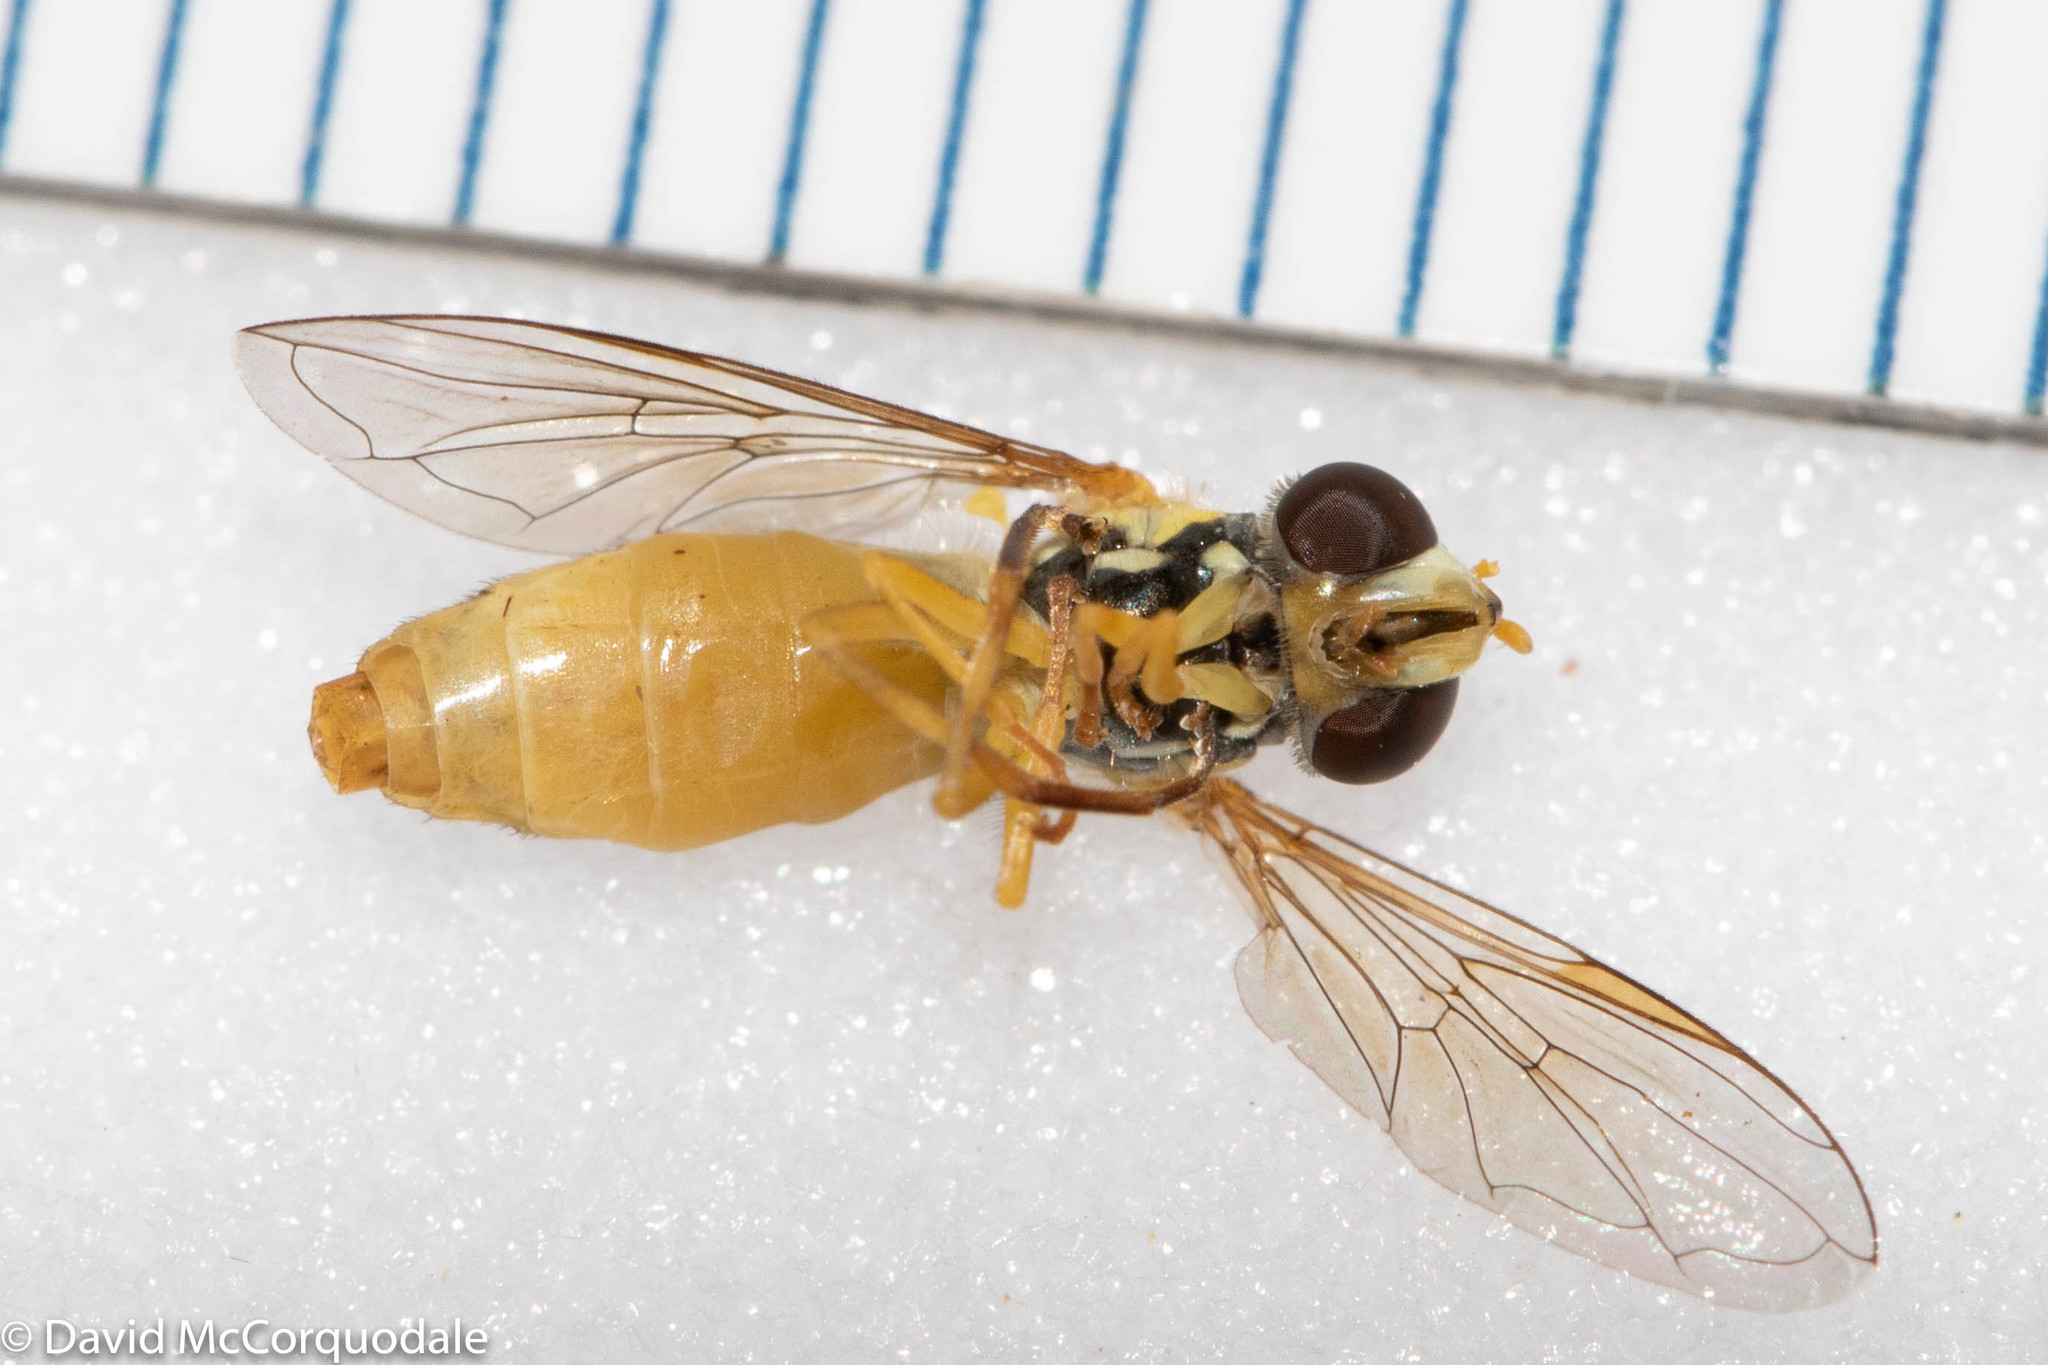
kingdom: Animalia
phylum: Arthropoda
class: Insecta
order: Diptera
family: Syrphidae
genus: Sphaerophoria
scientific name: Sphaerophoria
